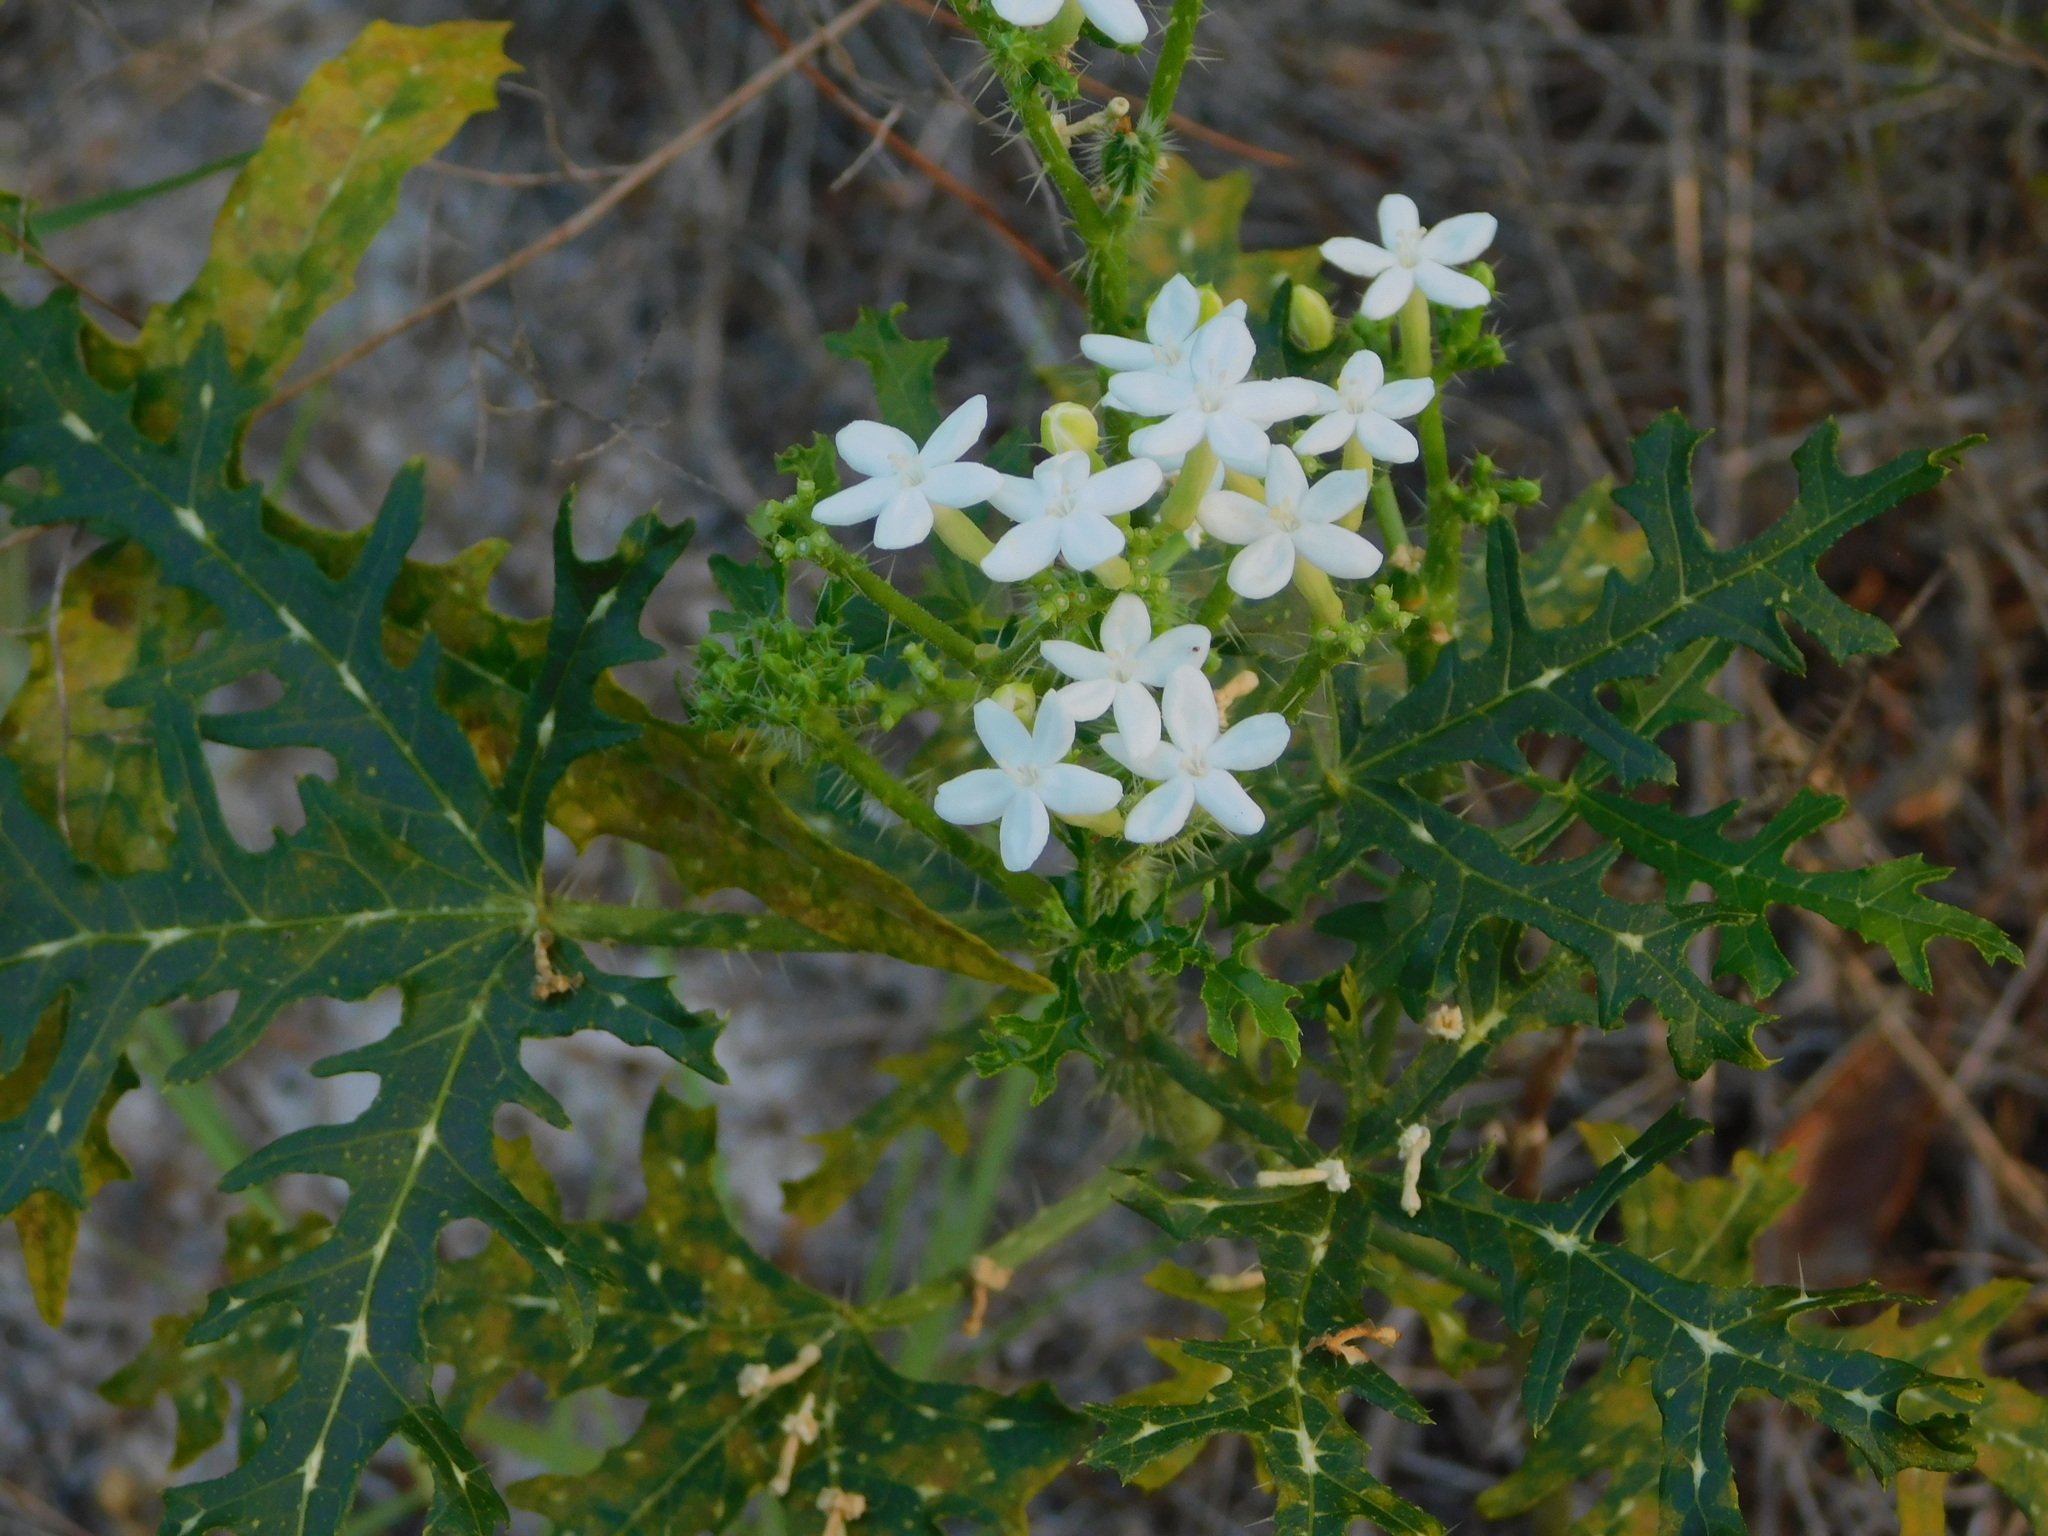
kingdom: Plantae
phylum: Tracheophyta
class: Magnoliopsida
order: Malpighiales
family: Euphorbiaceae
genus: Cnidoscolus
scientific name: Cnidoscolus stimulosus
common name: Bull-nettle
